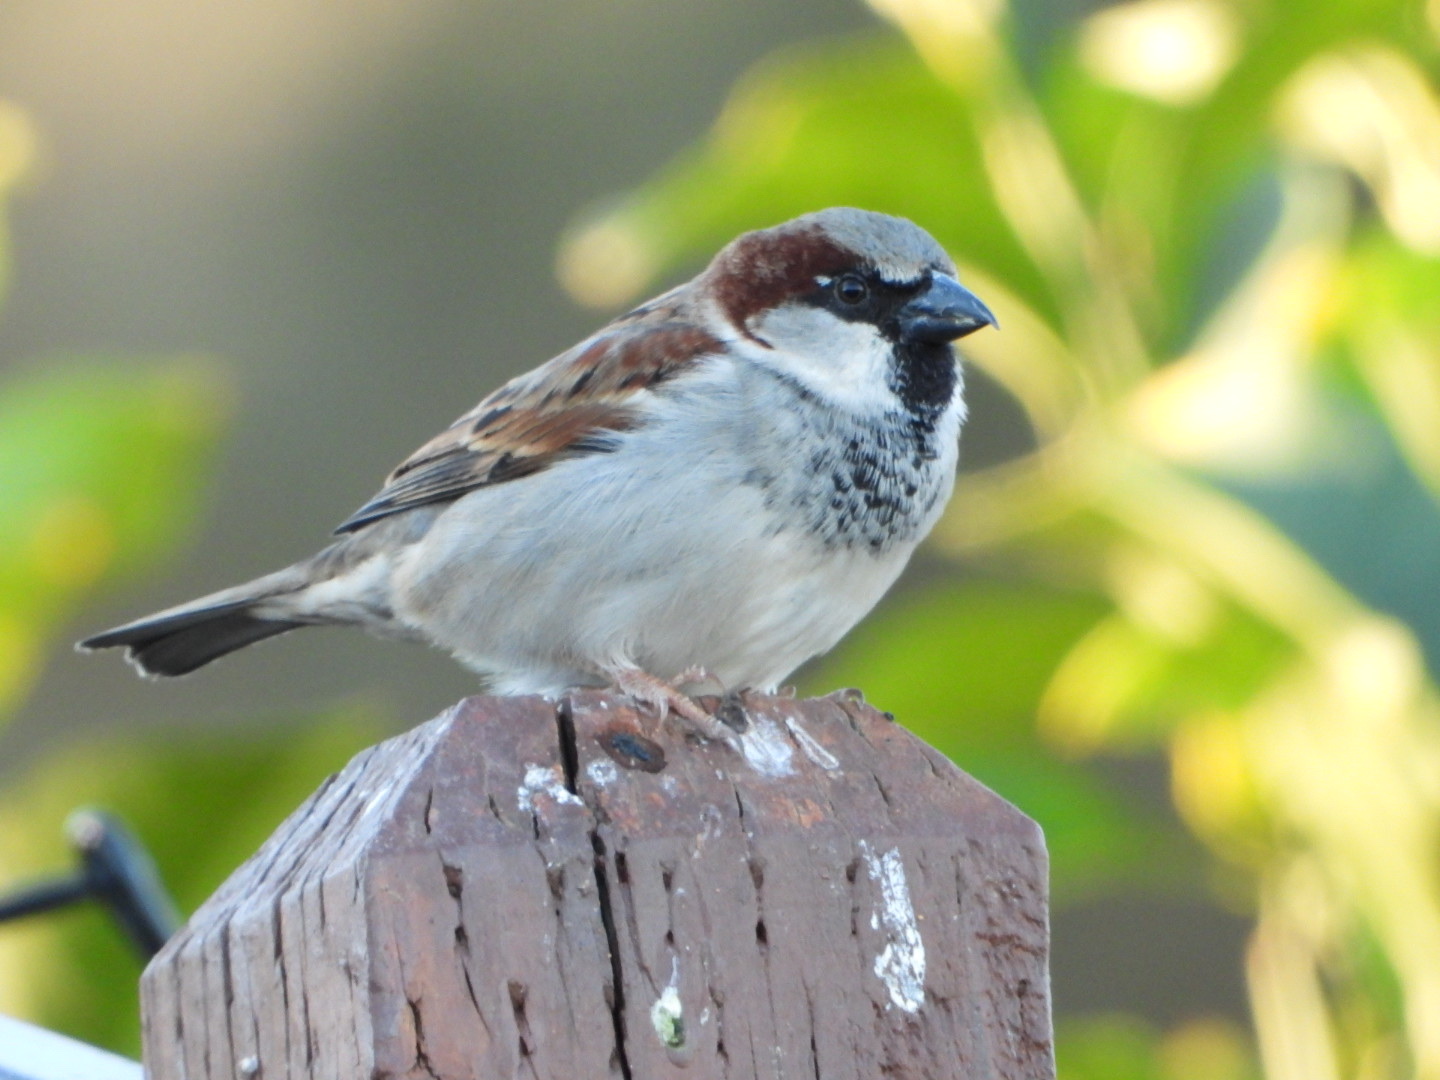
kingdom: Animalia
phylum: Chordata
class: Aves
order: Passeriformes
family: Passeridae
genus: Passer
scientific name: Passer domesticus
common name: House sparrow
